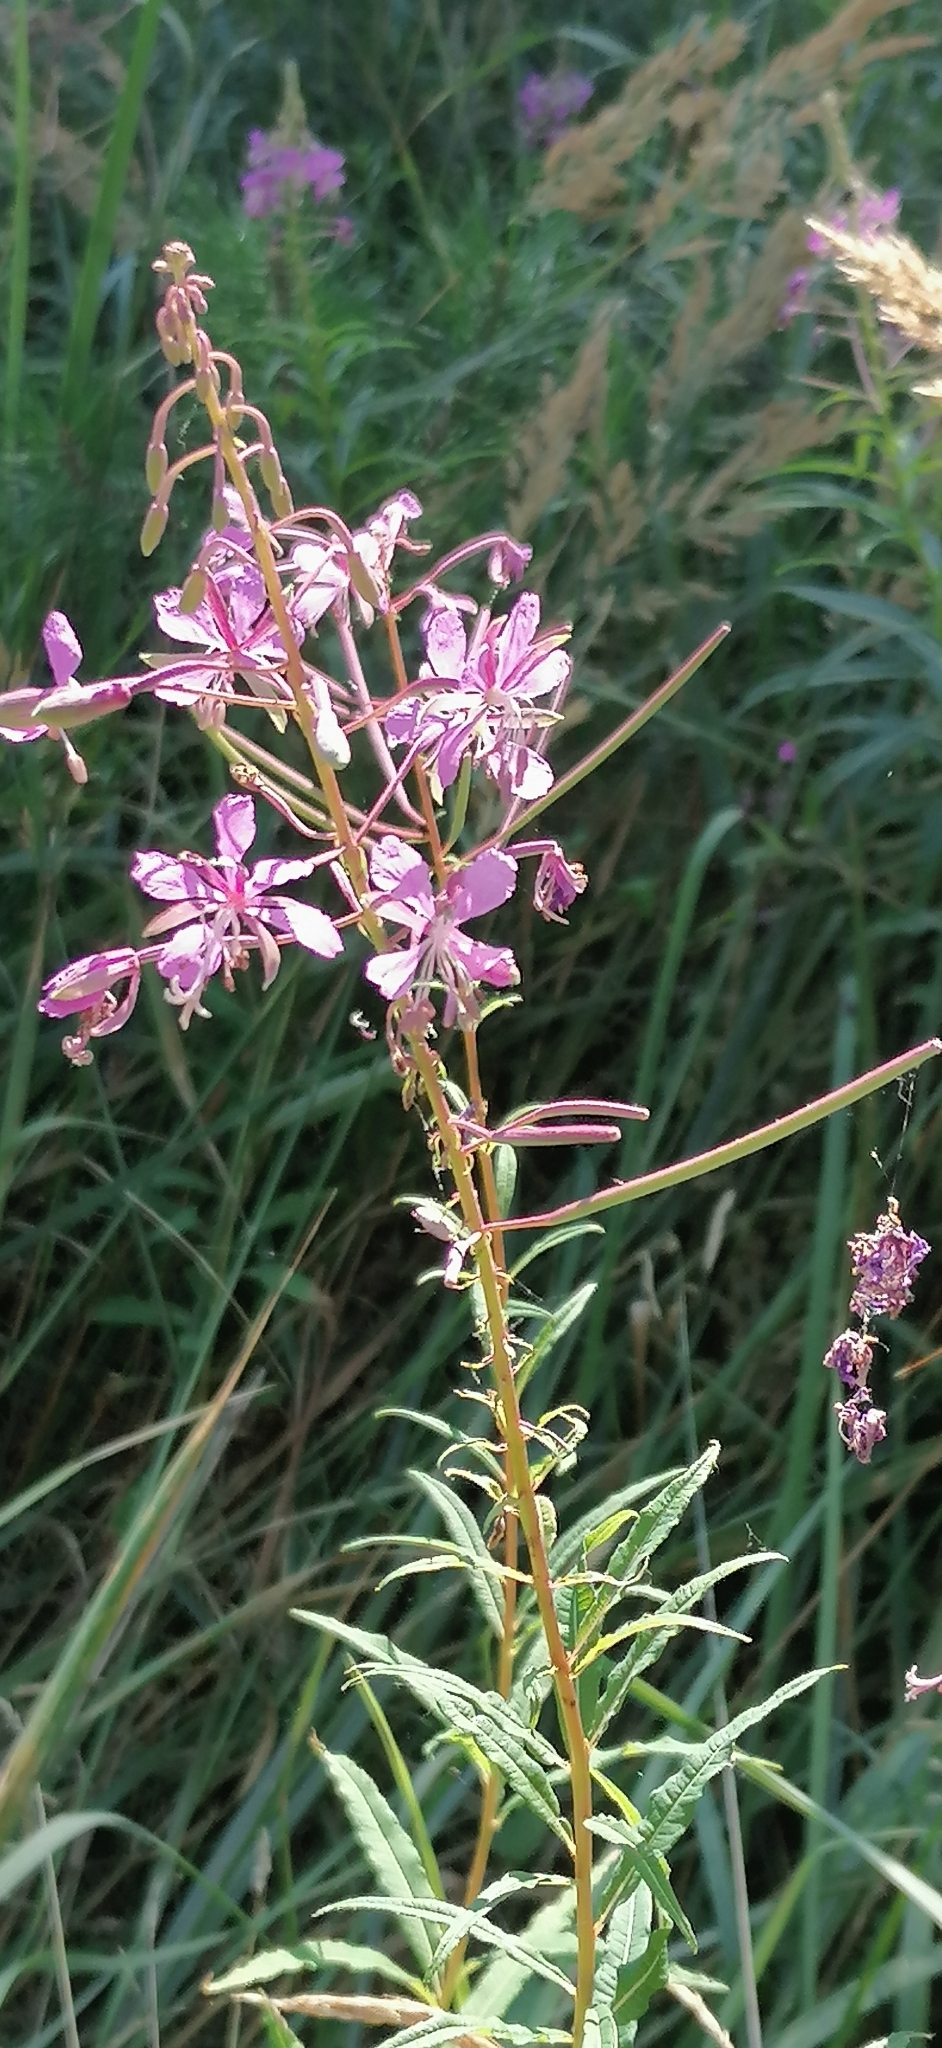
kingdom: Plantae
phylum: Tracheophyta
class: Magnoliopsida
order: Myrtales
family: Onagraceae
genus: Chamaenerion
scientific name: Chamaenerion angustifolium
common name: Fireweed
